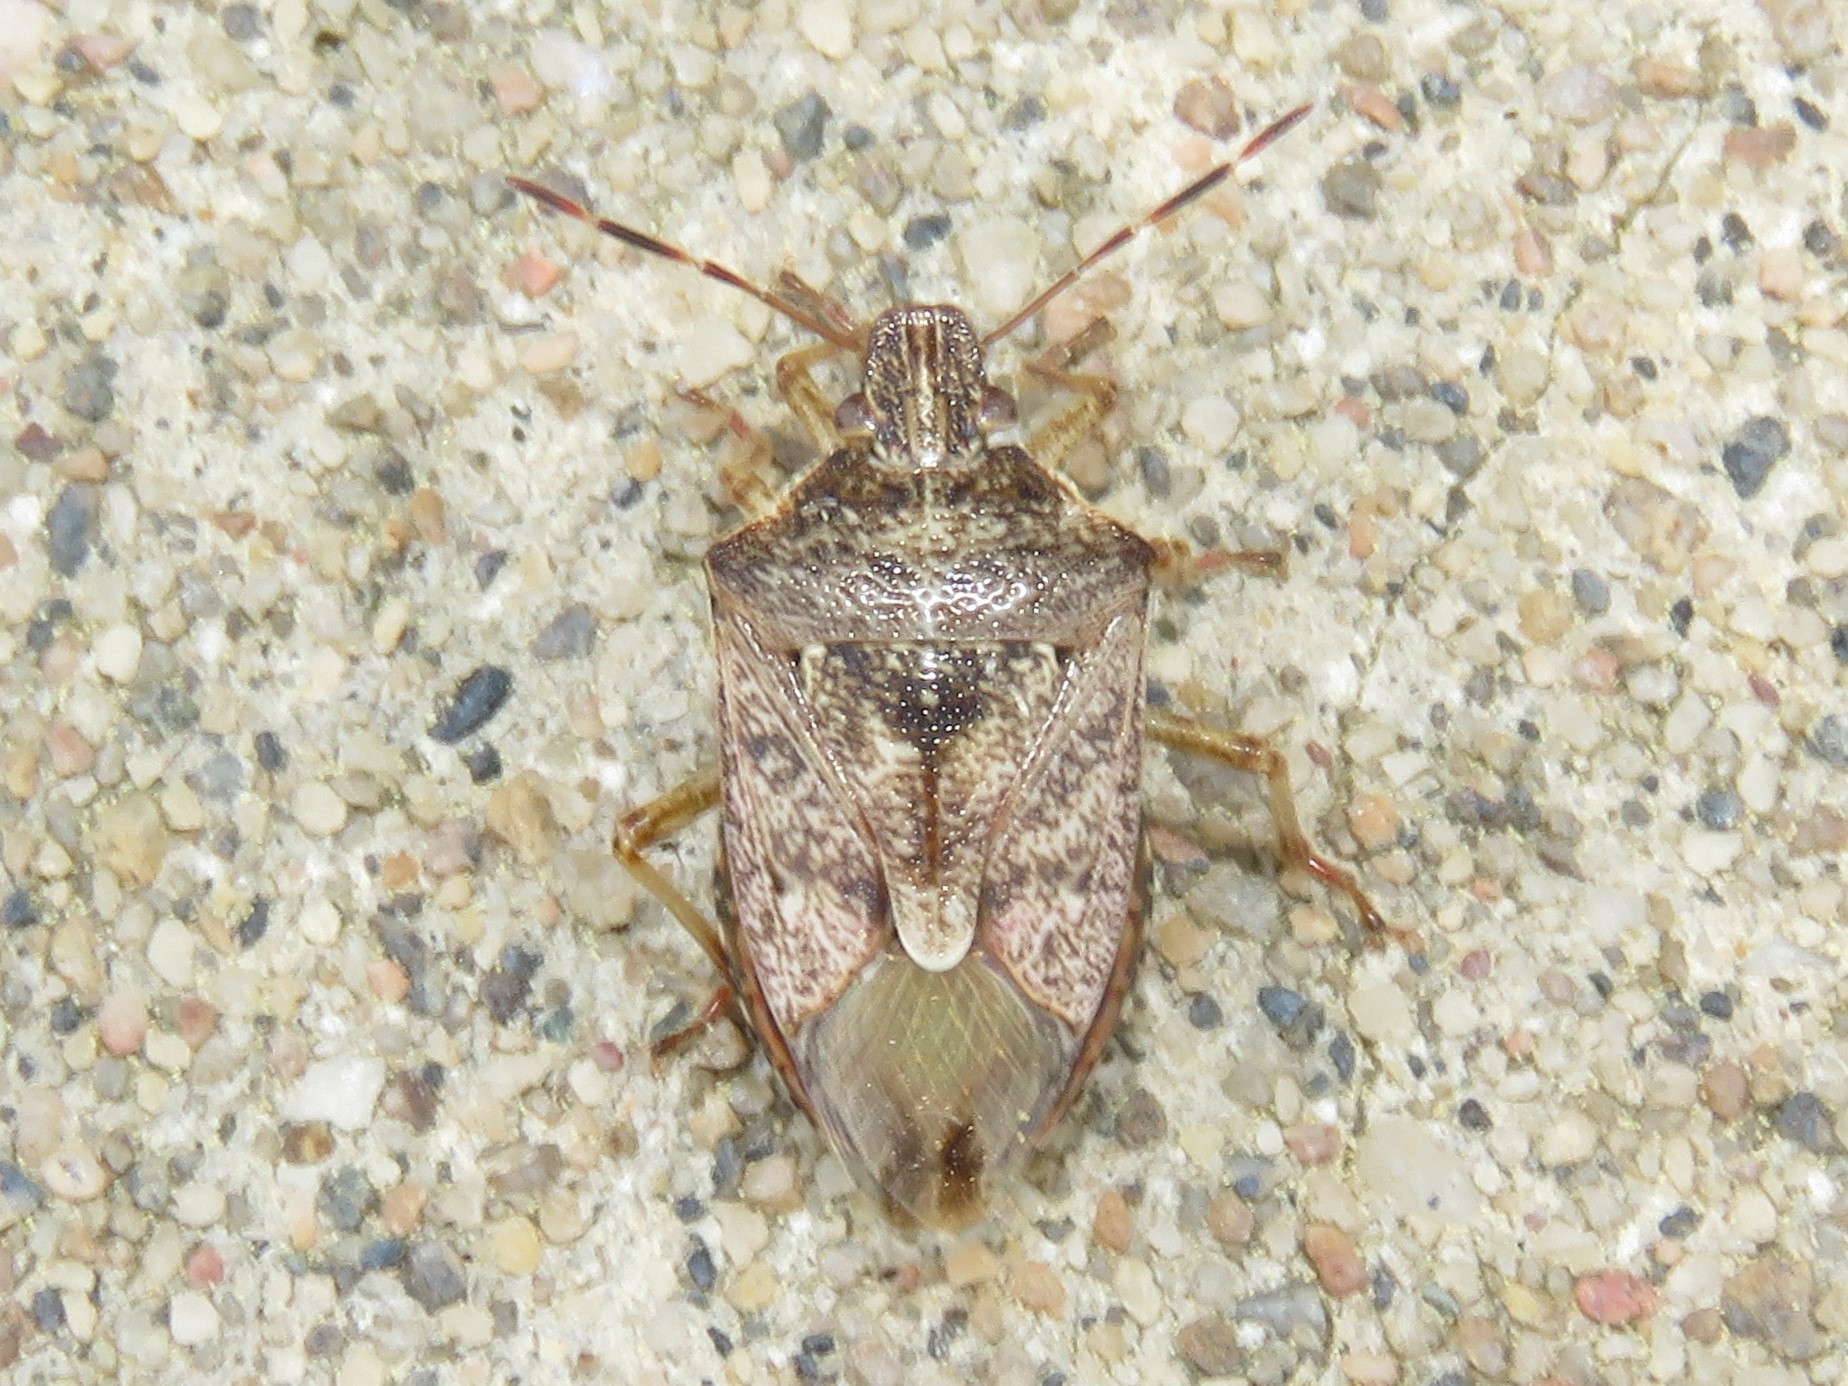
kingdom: Animalia
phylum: Arthropoda
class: Insecta
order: Hemiptera
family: Pentatomidae
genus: Podisus
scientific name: Podisus serieventris
